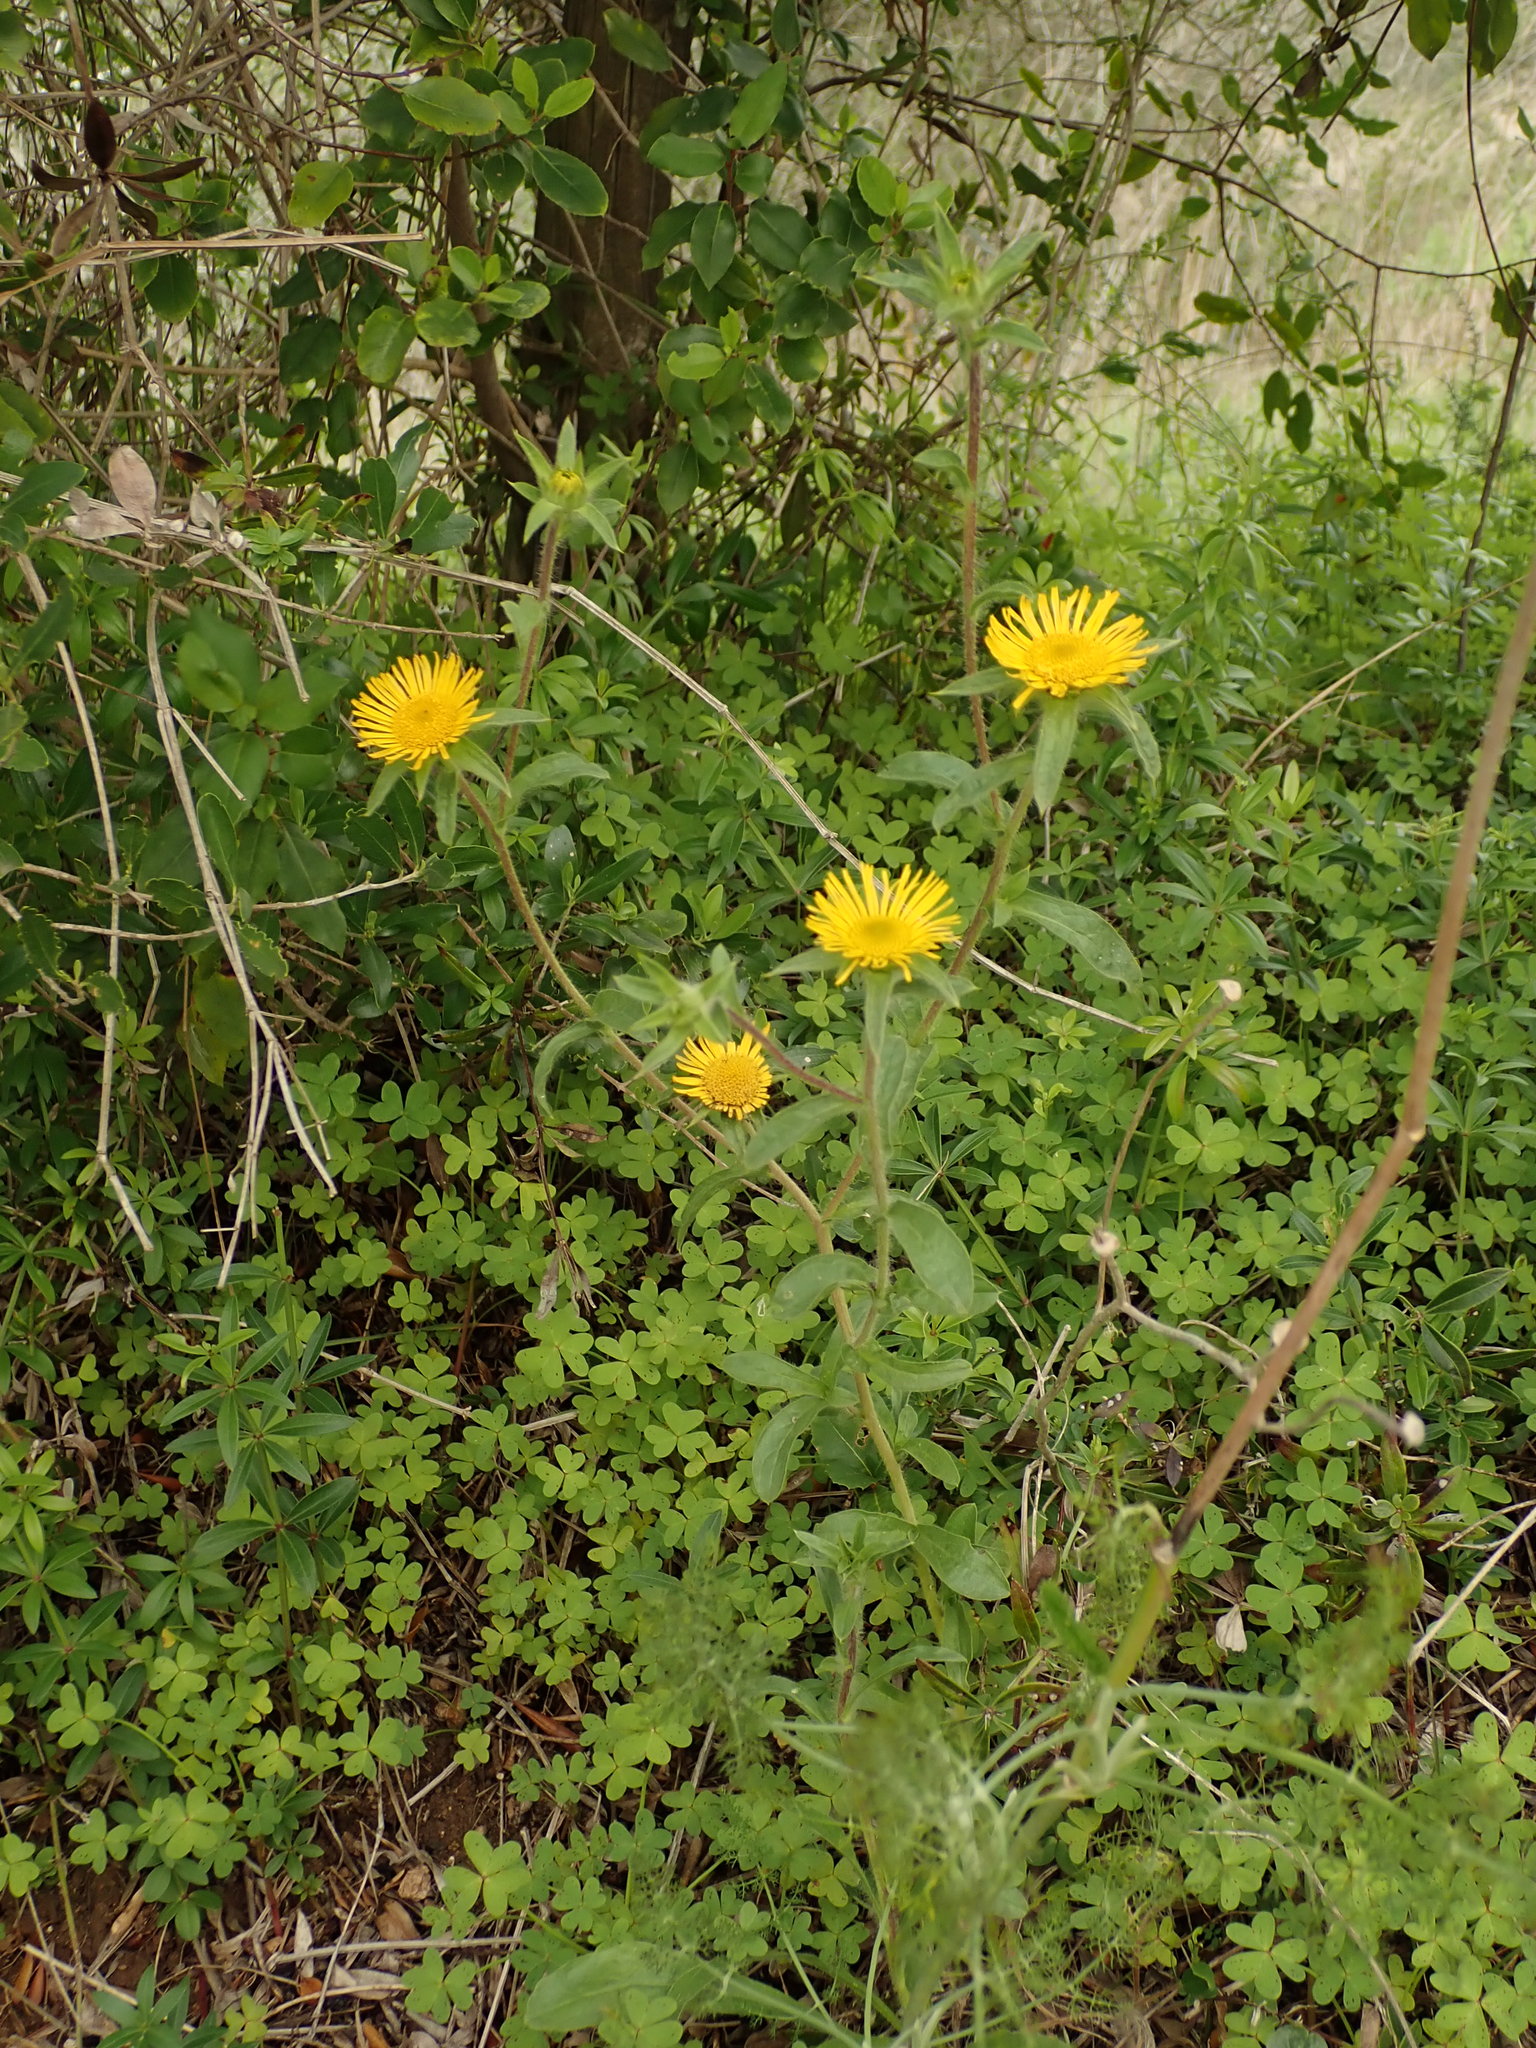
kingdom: Plantae
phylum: Tracheophyta
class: Magnoliopsida
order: Asterales
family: Asteraceae
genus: Pallenis
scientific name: Pallenis spinosa
